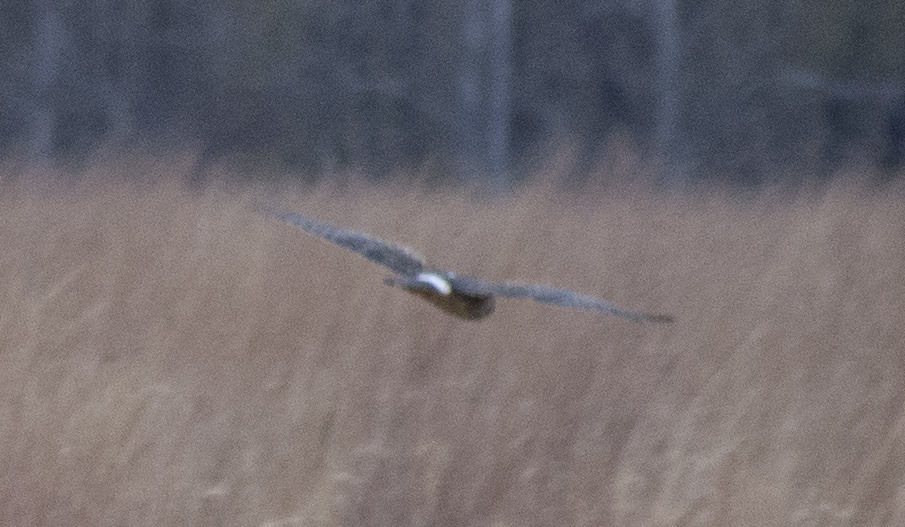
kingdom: Animalia
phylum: Chordata
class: Aves
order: Accipitriformes
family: Accipitridae
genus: Circus
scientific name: Circus cyaneus
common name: Hen harrier
